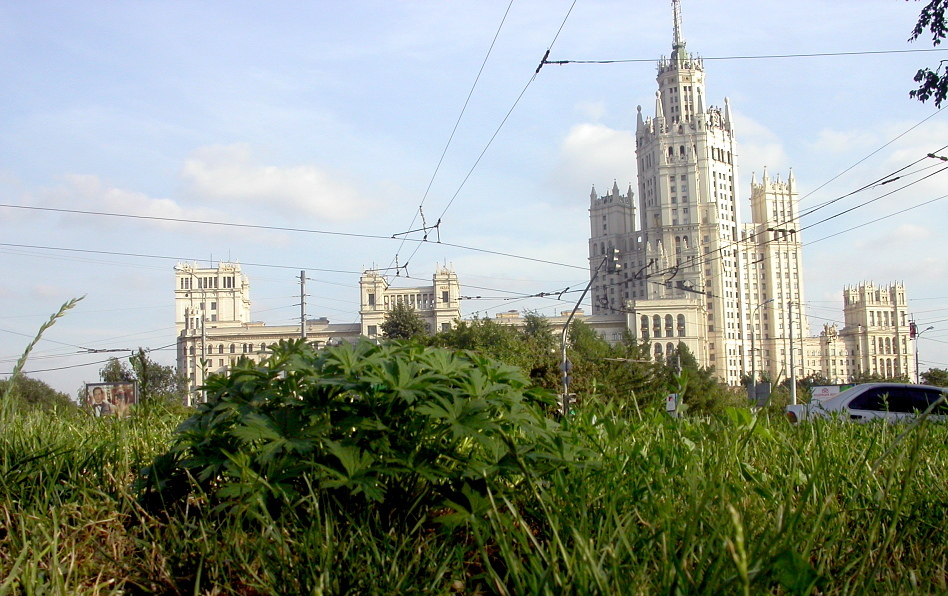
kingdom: Plantae
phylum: Tracheophyta
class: Magnoliopsida
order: Geraniales
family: Geraniaceae
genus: Geranium
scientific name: Geranium pratense
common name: Meadow crane's-bill
